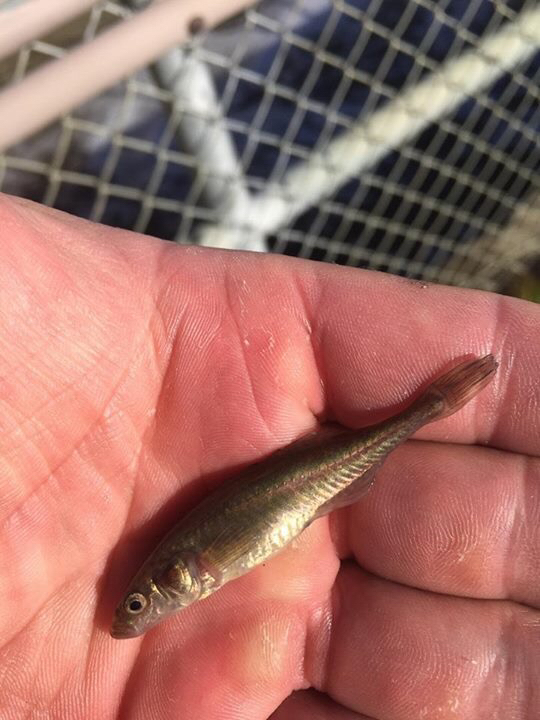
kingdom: Animalia
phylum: Chordata
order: Gasterosteiformes
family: Gasterosteidae
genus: Culaea
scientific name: Culaea inconstans
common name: Brook stickleback
